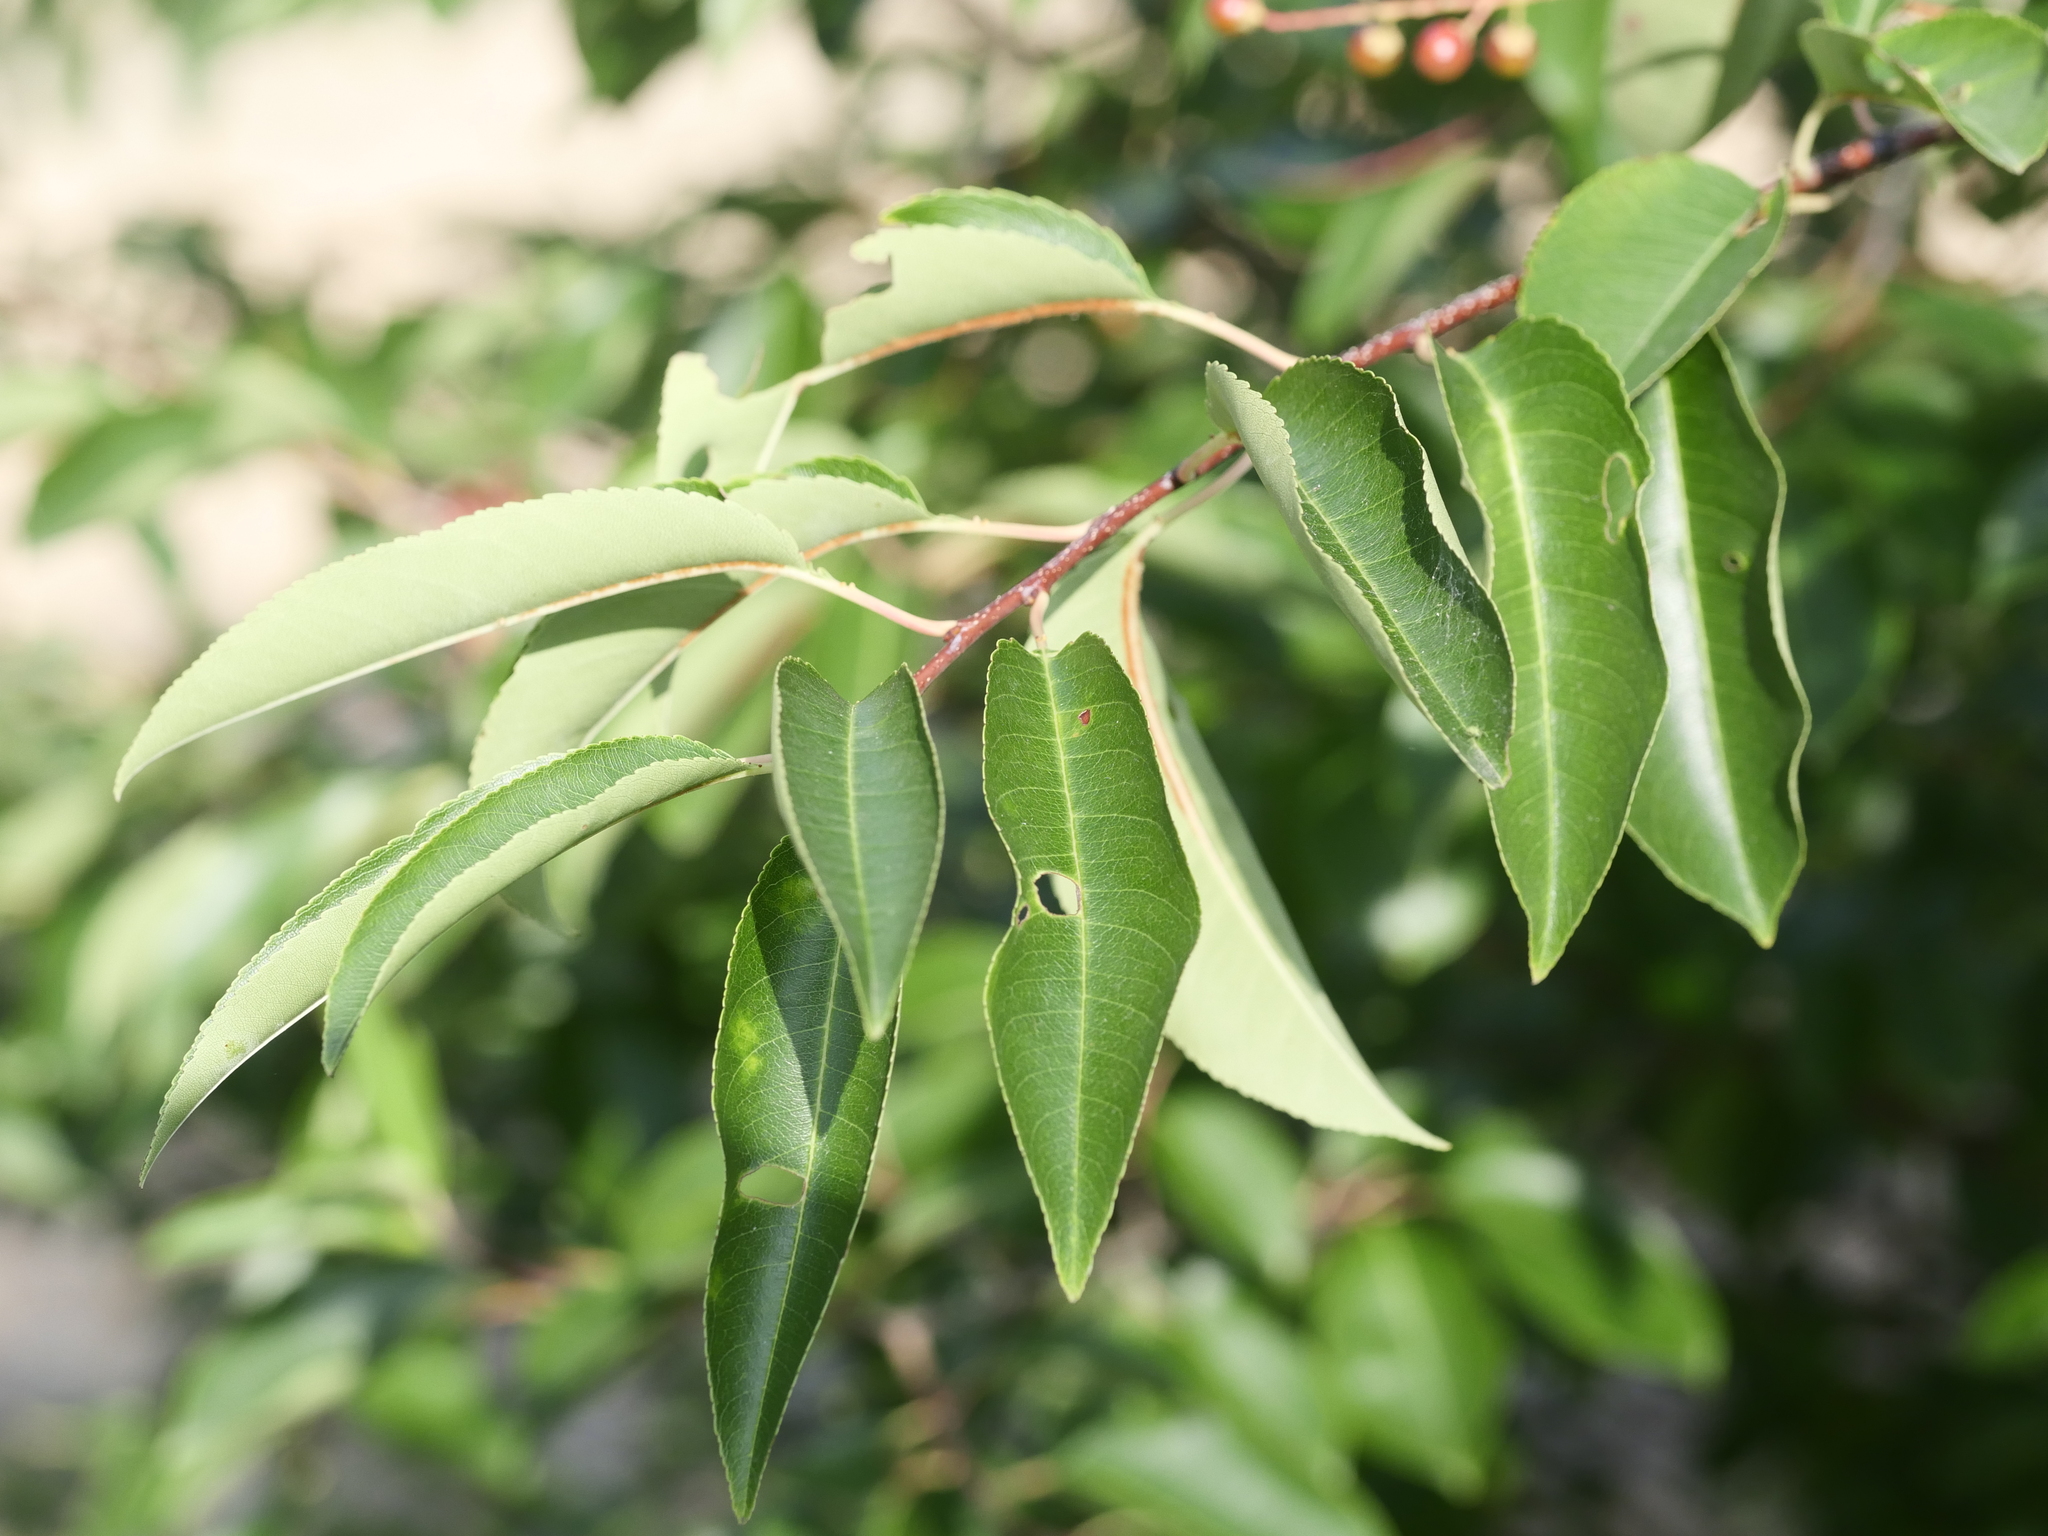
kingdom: Plantae
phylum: Tracheophyta
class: Magnoliopsida
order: Rosales
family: Rosaceae
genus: Prunus
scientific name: Prunus serotina
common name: Black cherry
